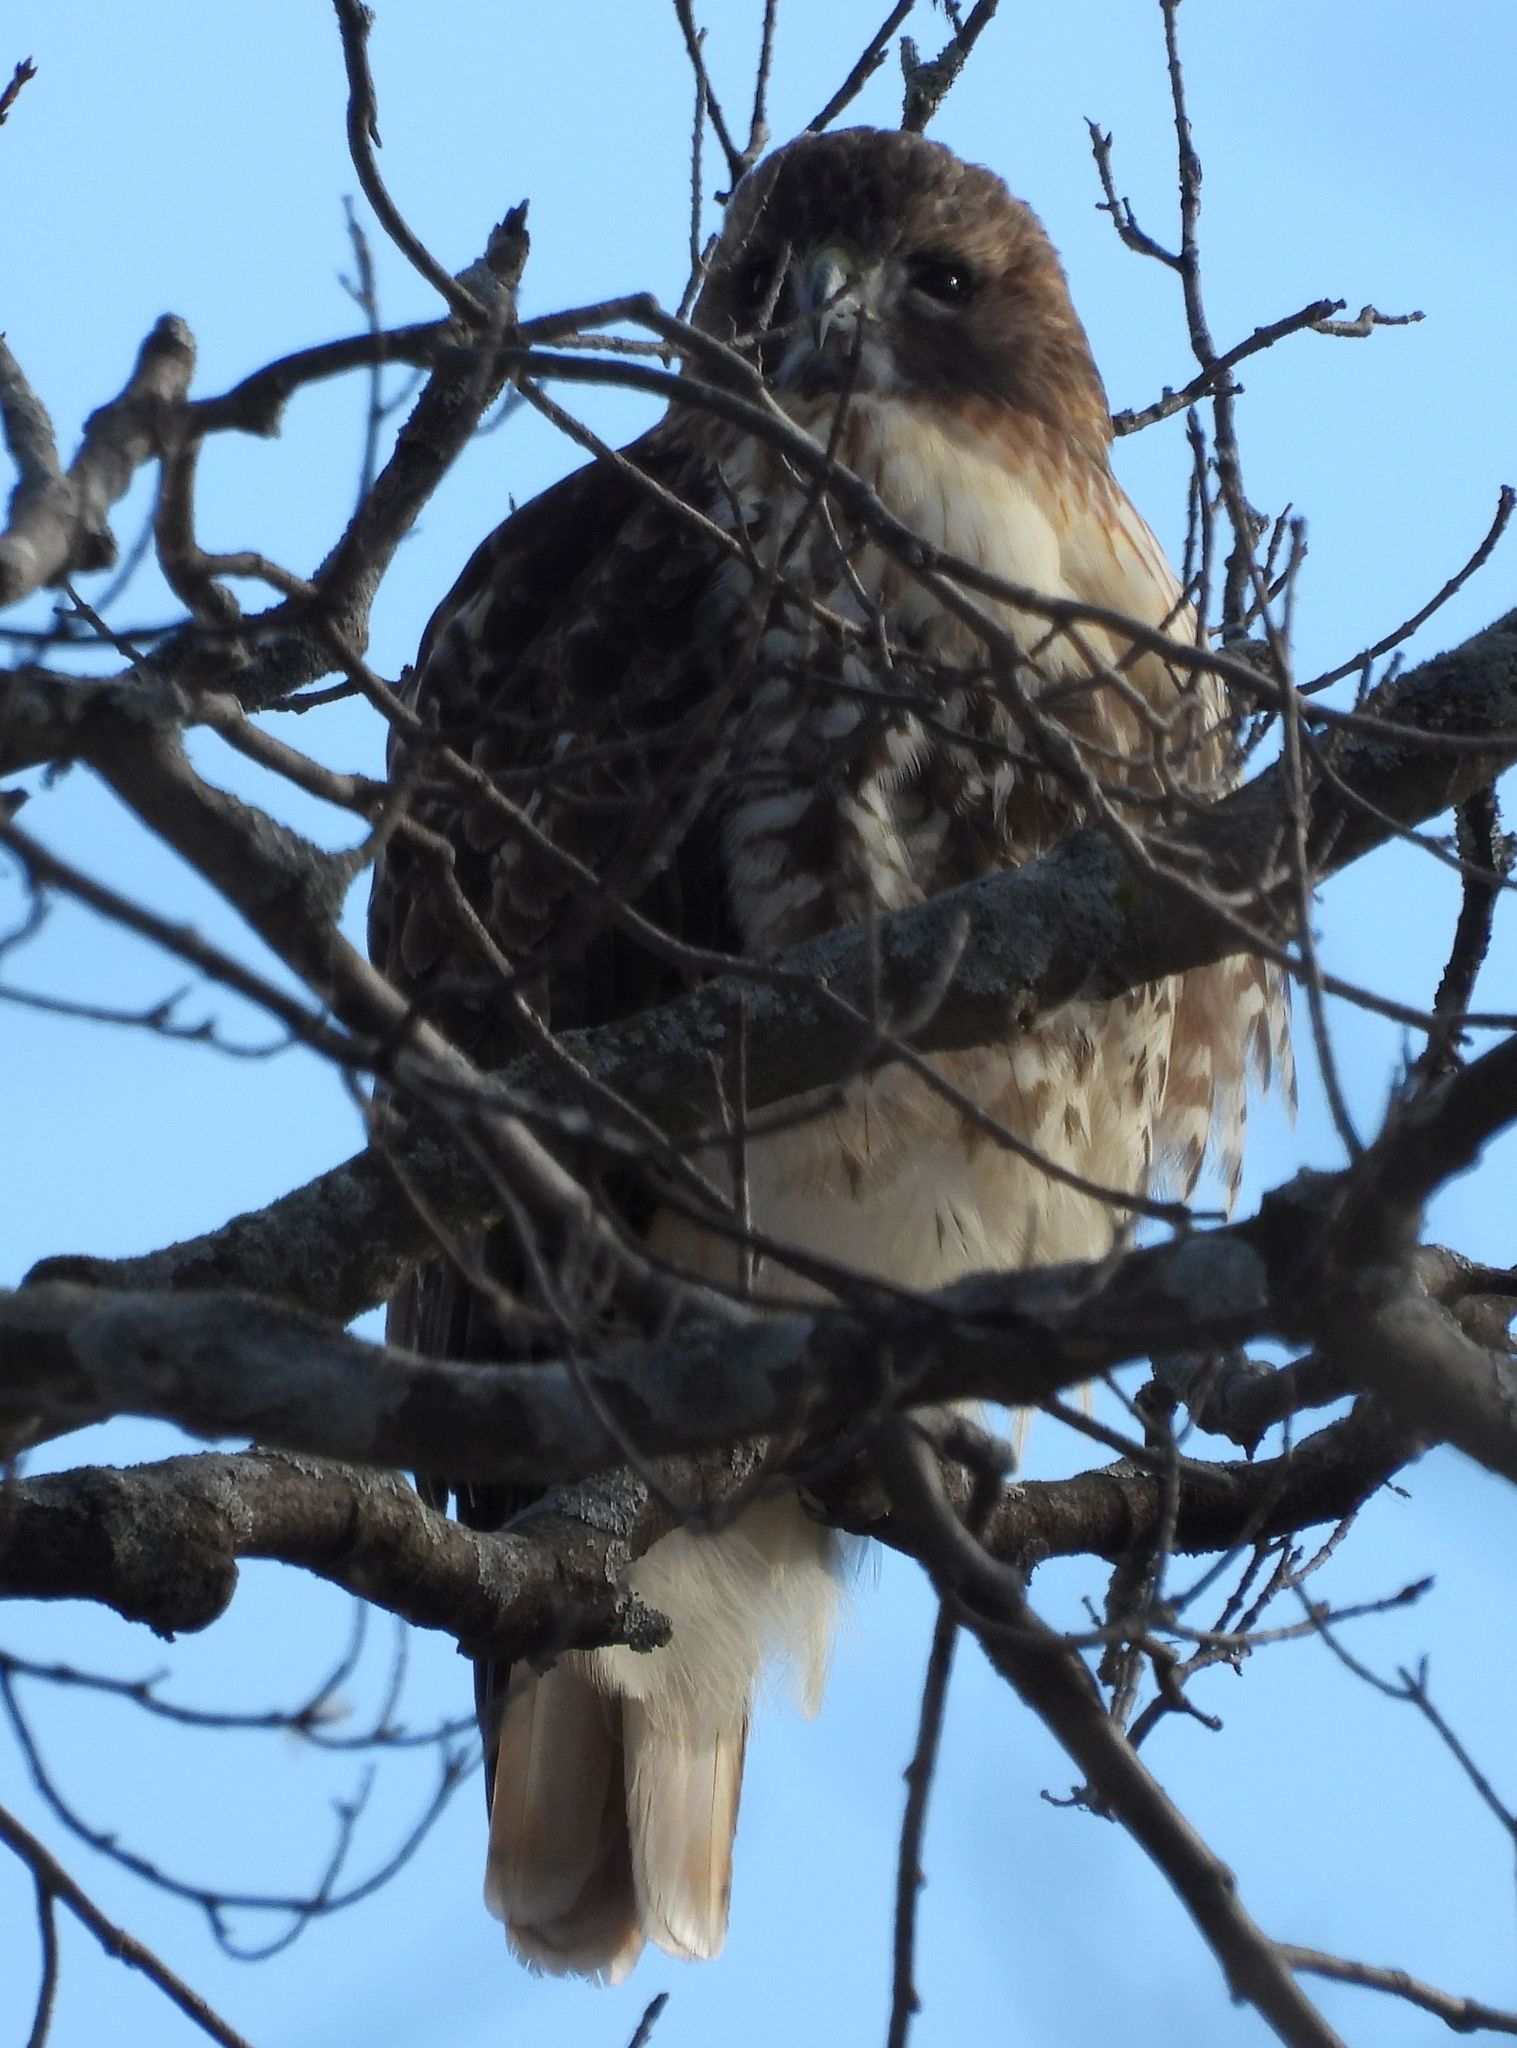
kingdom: Animalia
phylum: Chordata
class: Aves
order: Accipitriformes
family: Accipitridae
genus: Buteo
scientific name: Buteo jamaicensis
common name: Red-tailed hawk
